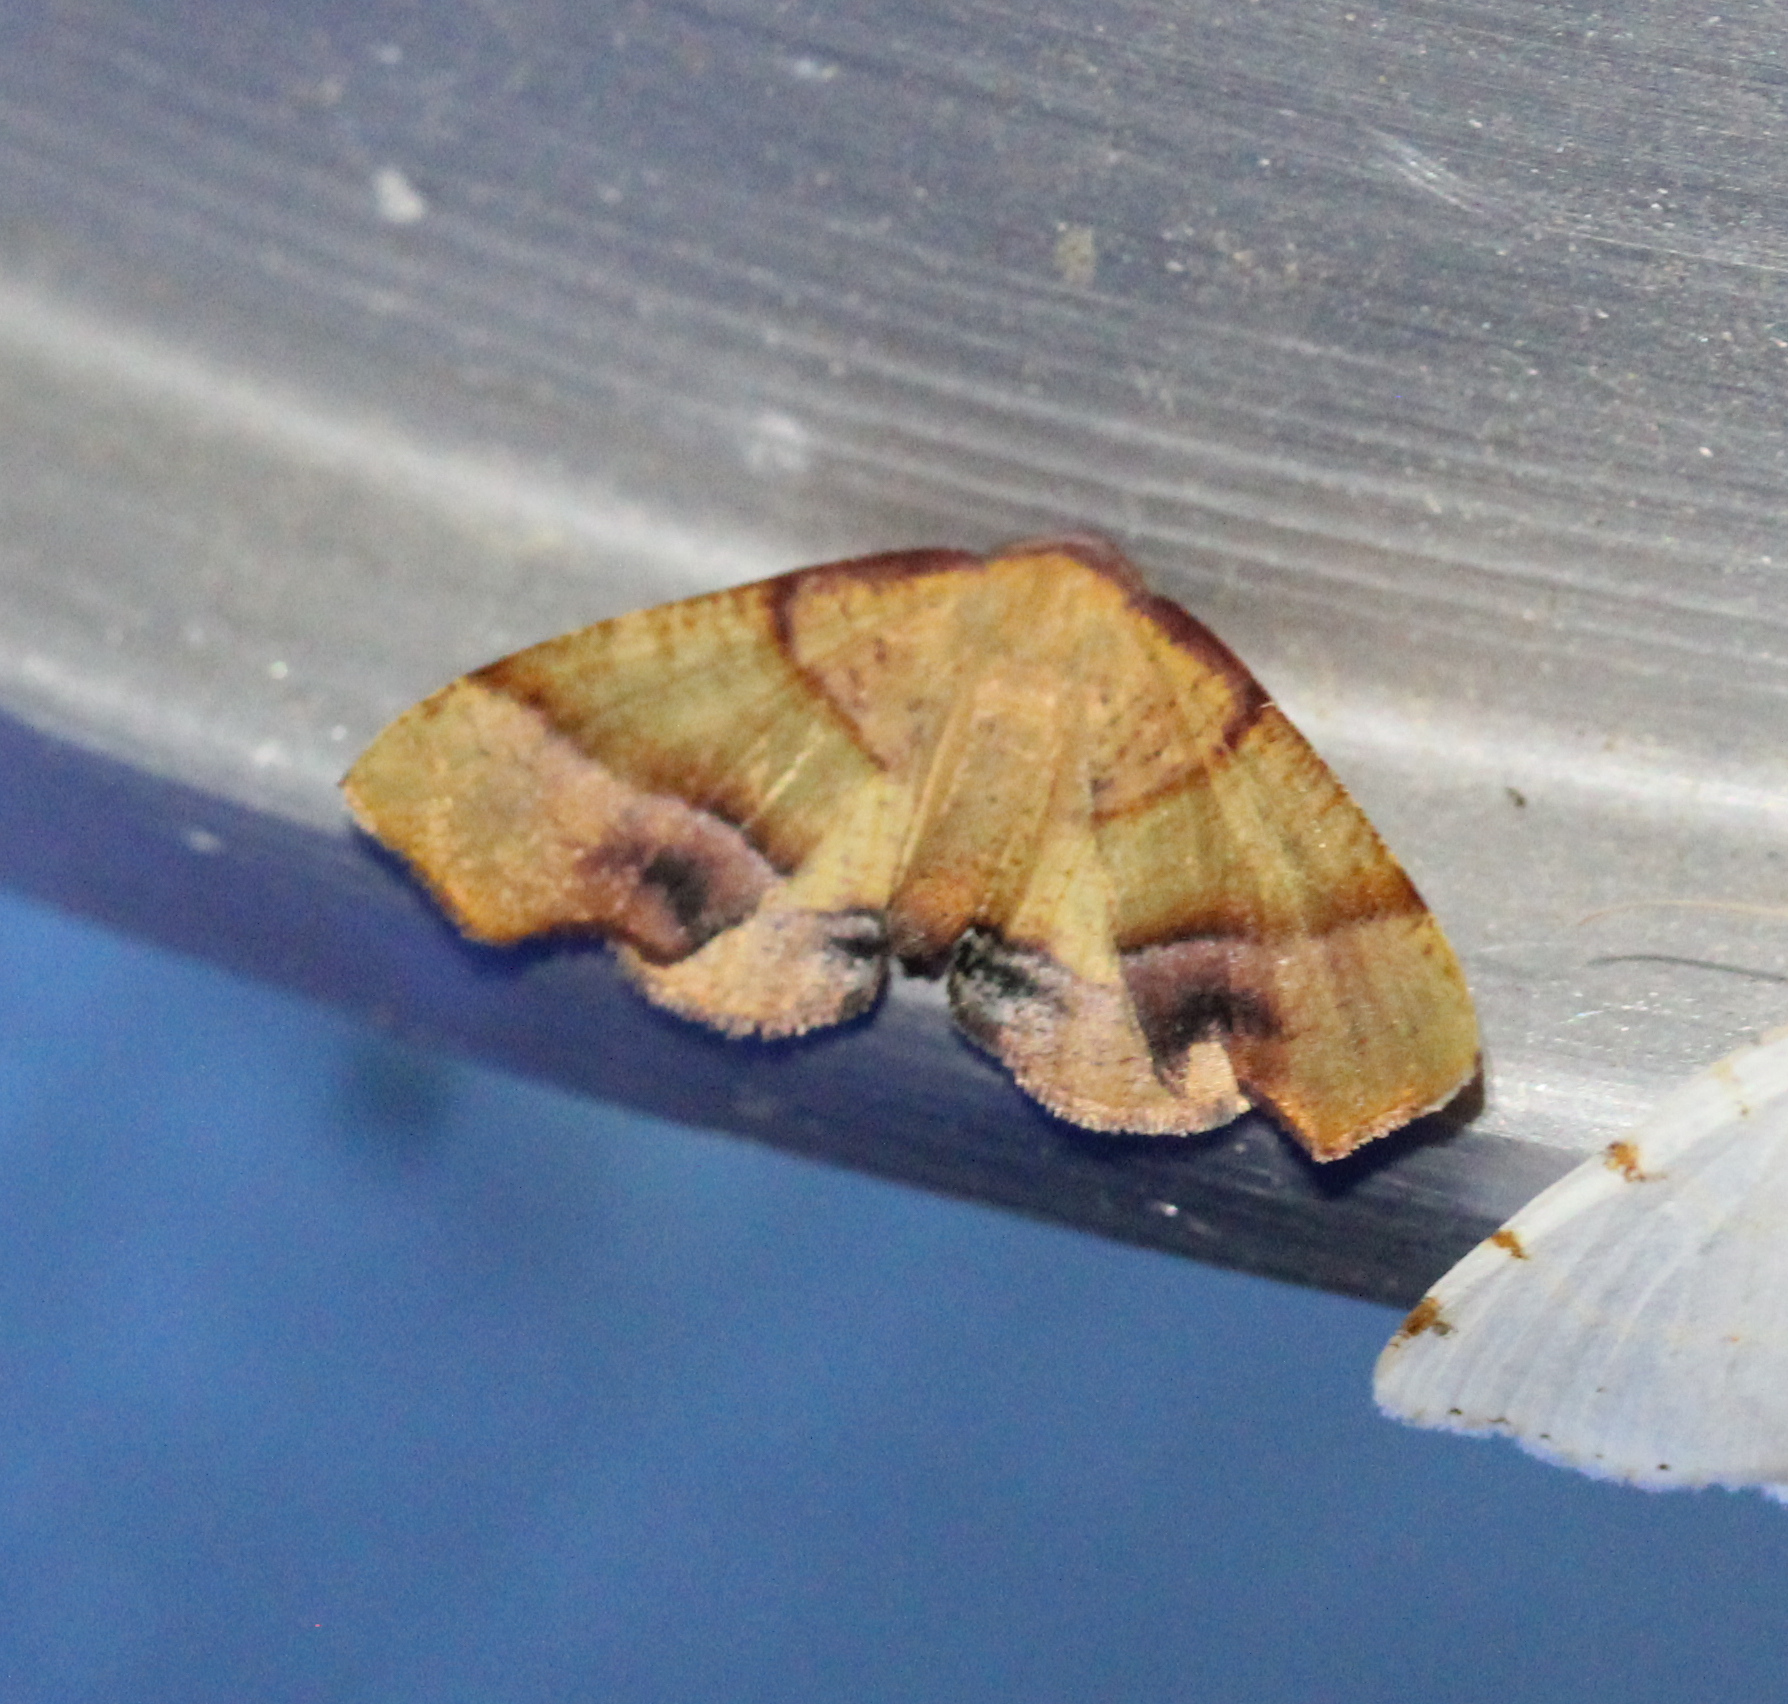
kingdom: Animalia
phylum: Arthropoda
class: Insecta
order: Lepidoptera
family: Geometridae
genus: Plagodis
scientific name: Plagodis phlogosaria
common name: Straight-lined plagodis
